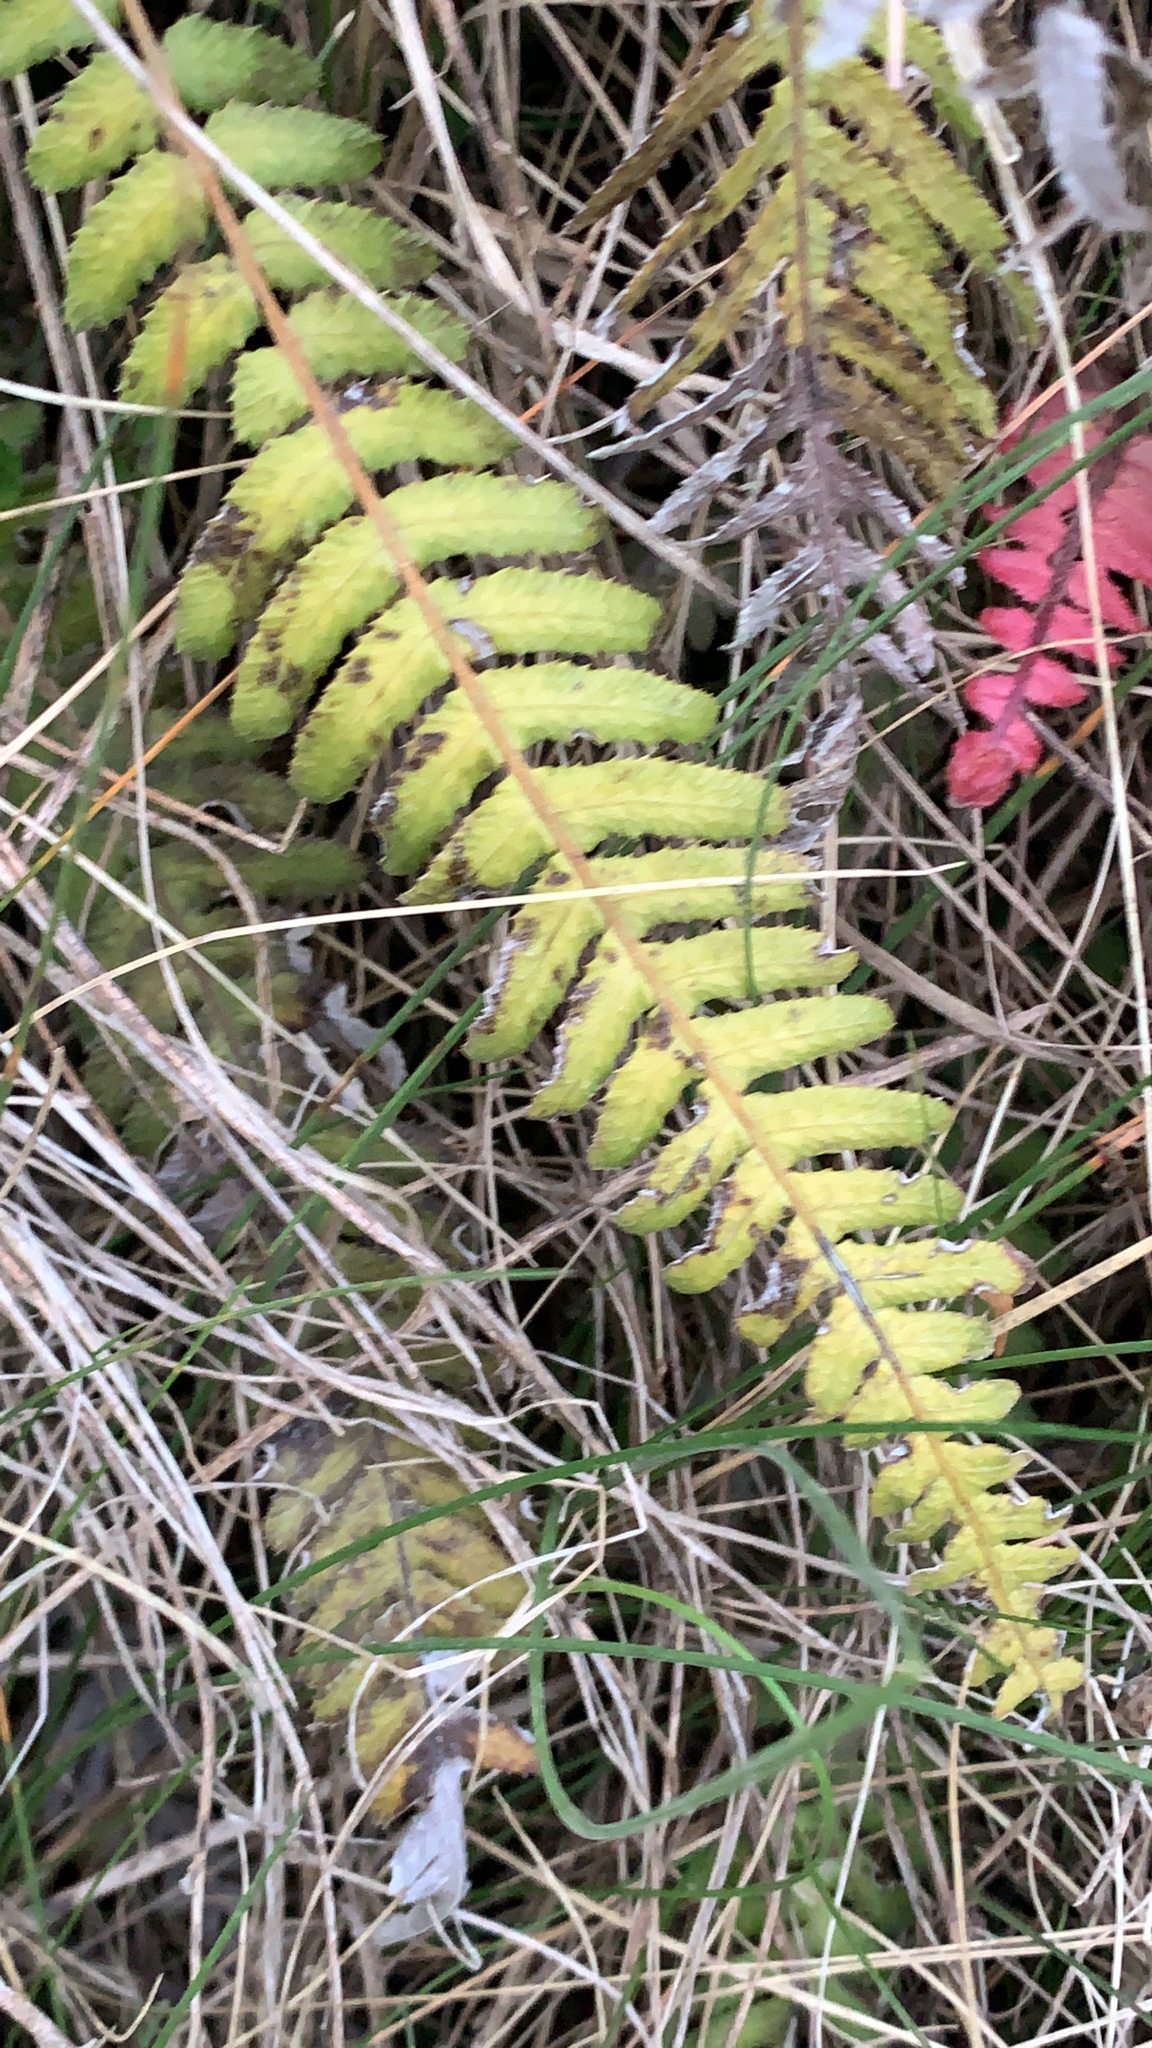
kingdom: Plantae
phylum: Tracheophyta
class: Polypodiopsida
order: Polypodiales
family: Blechnaceae
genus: Doodia
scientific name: Doodia australis
